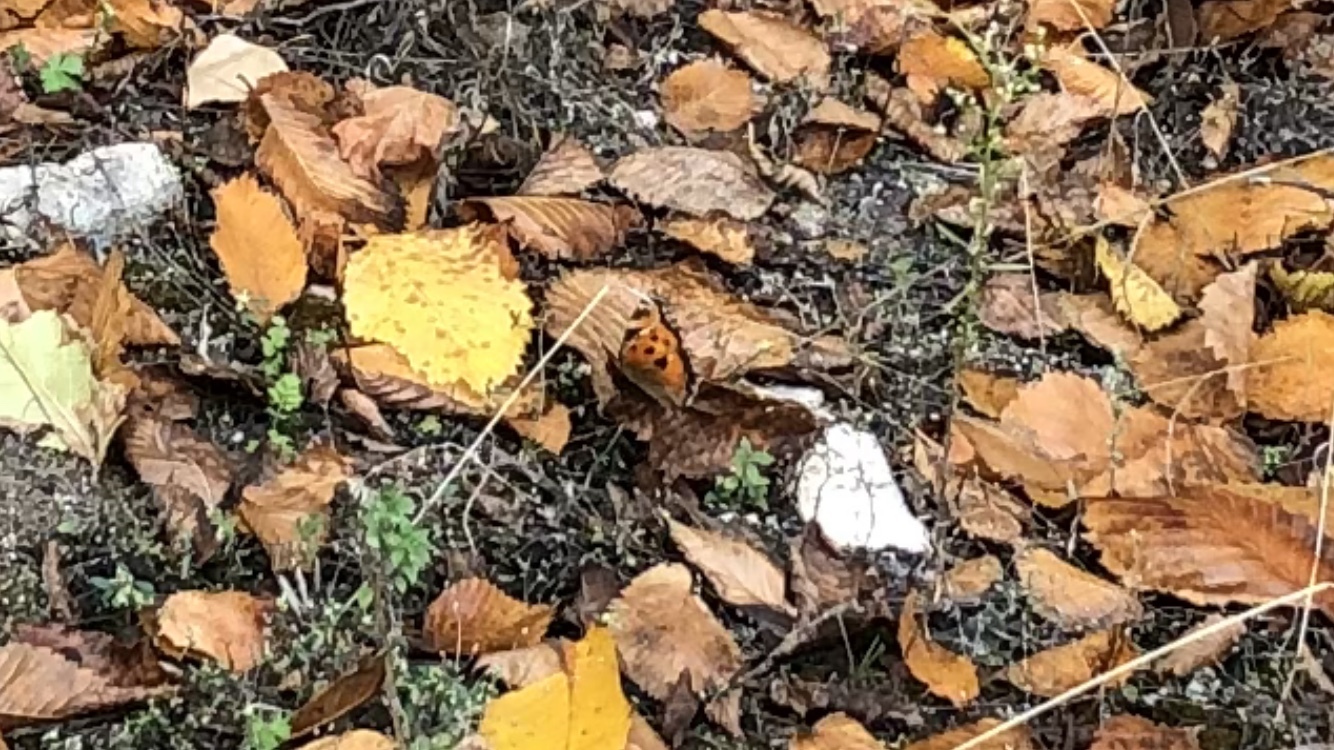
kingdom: Animalia
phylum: Arthropoda
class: Insecta
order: Lepidoptera
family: Nymphalidae
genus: Nymphalis
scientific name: Nymphalis xanthomelas
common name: Scarce tortoiseshell
